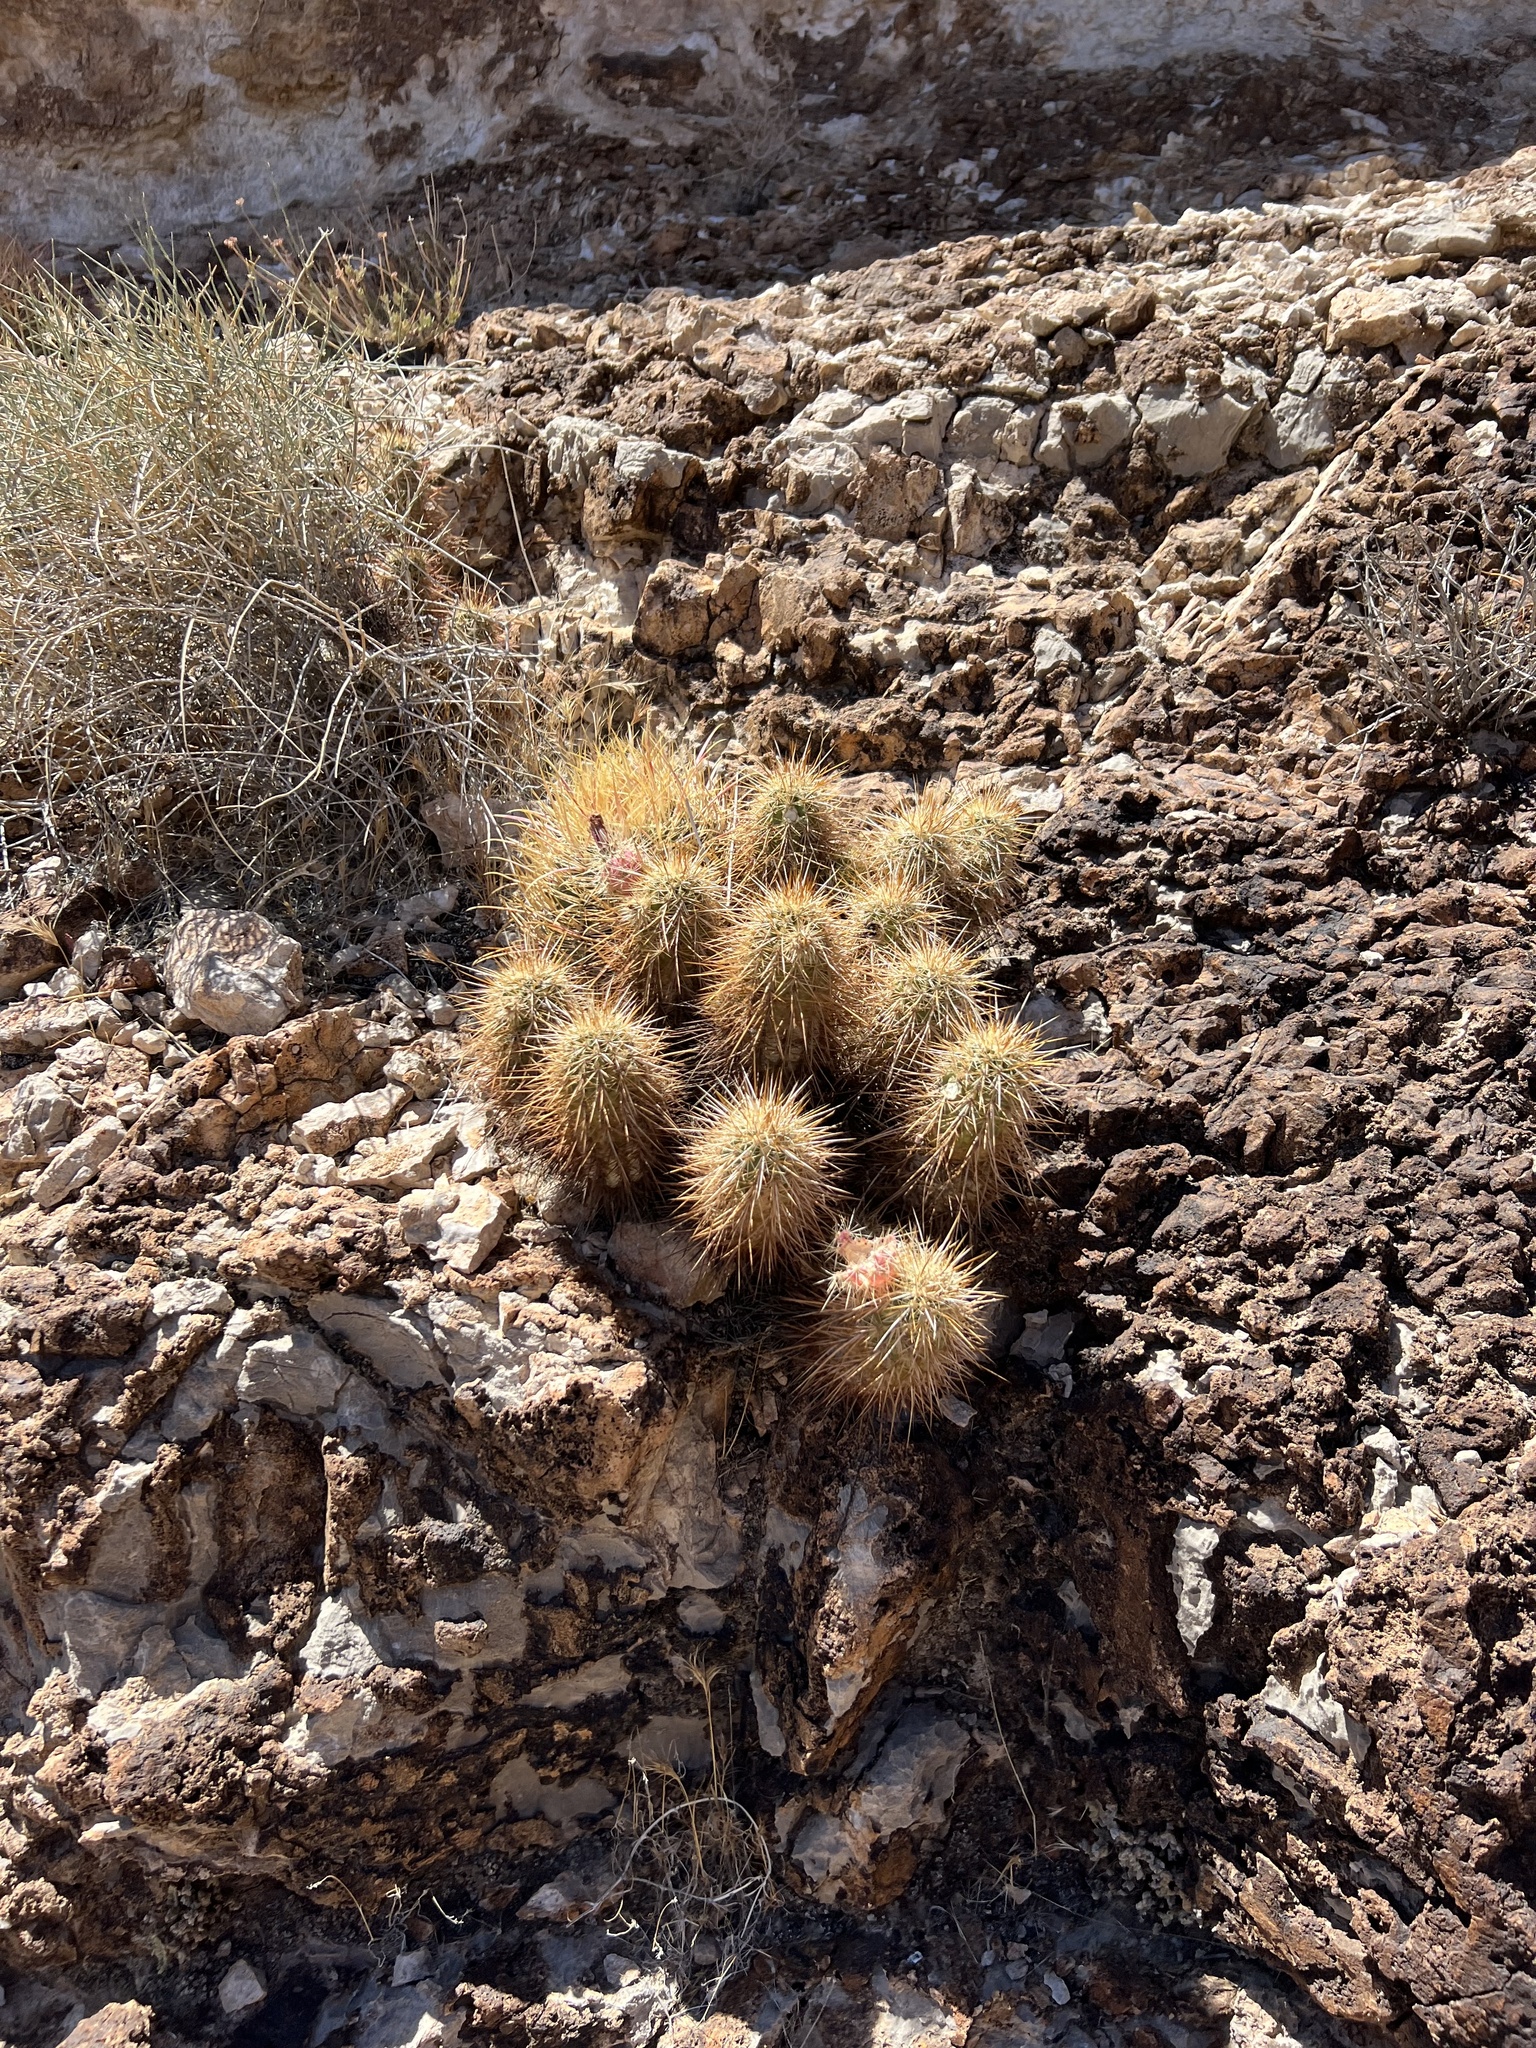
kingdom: Plantae
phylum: Tracheophyta
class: Magnoliopsida
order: Caryophyllales
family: Cactaceae
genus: Echinocereus
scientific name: Echinocereus engelmannii
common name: Engelmann's hedgehog cactus
